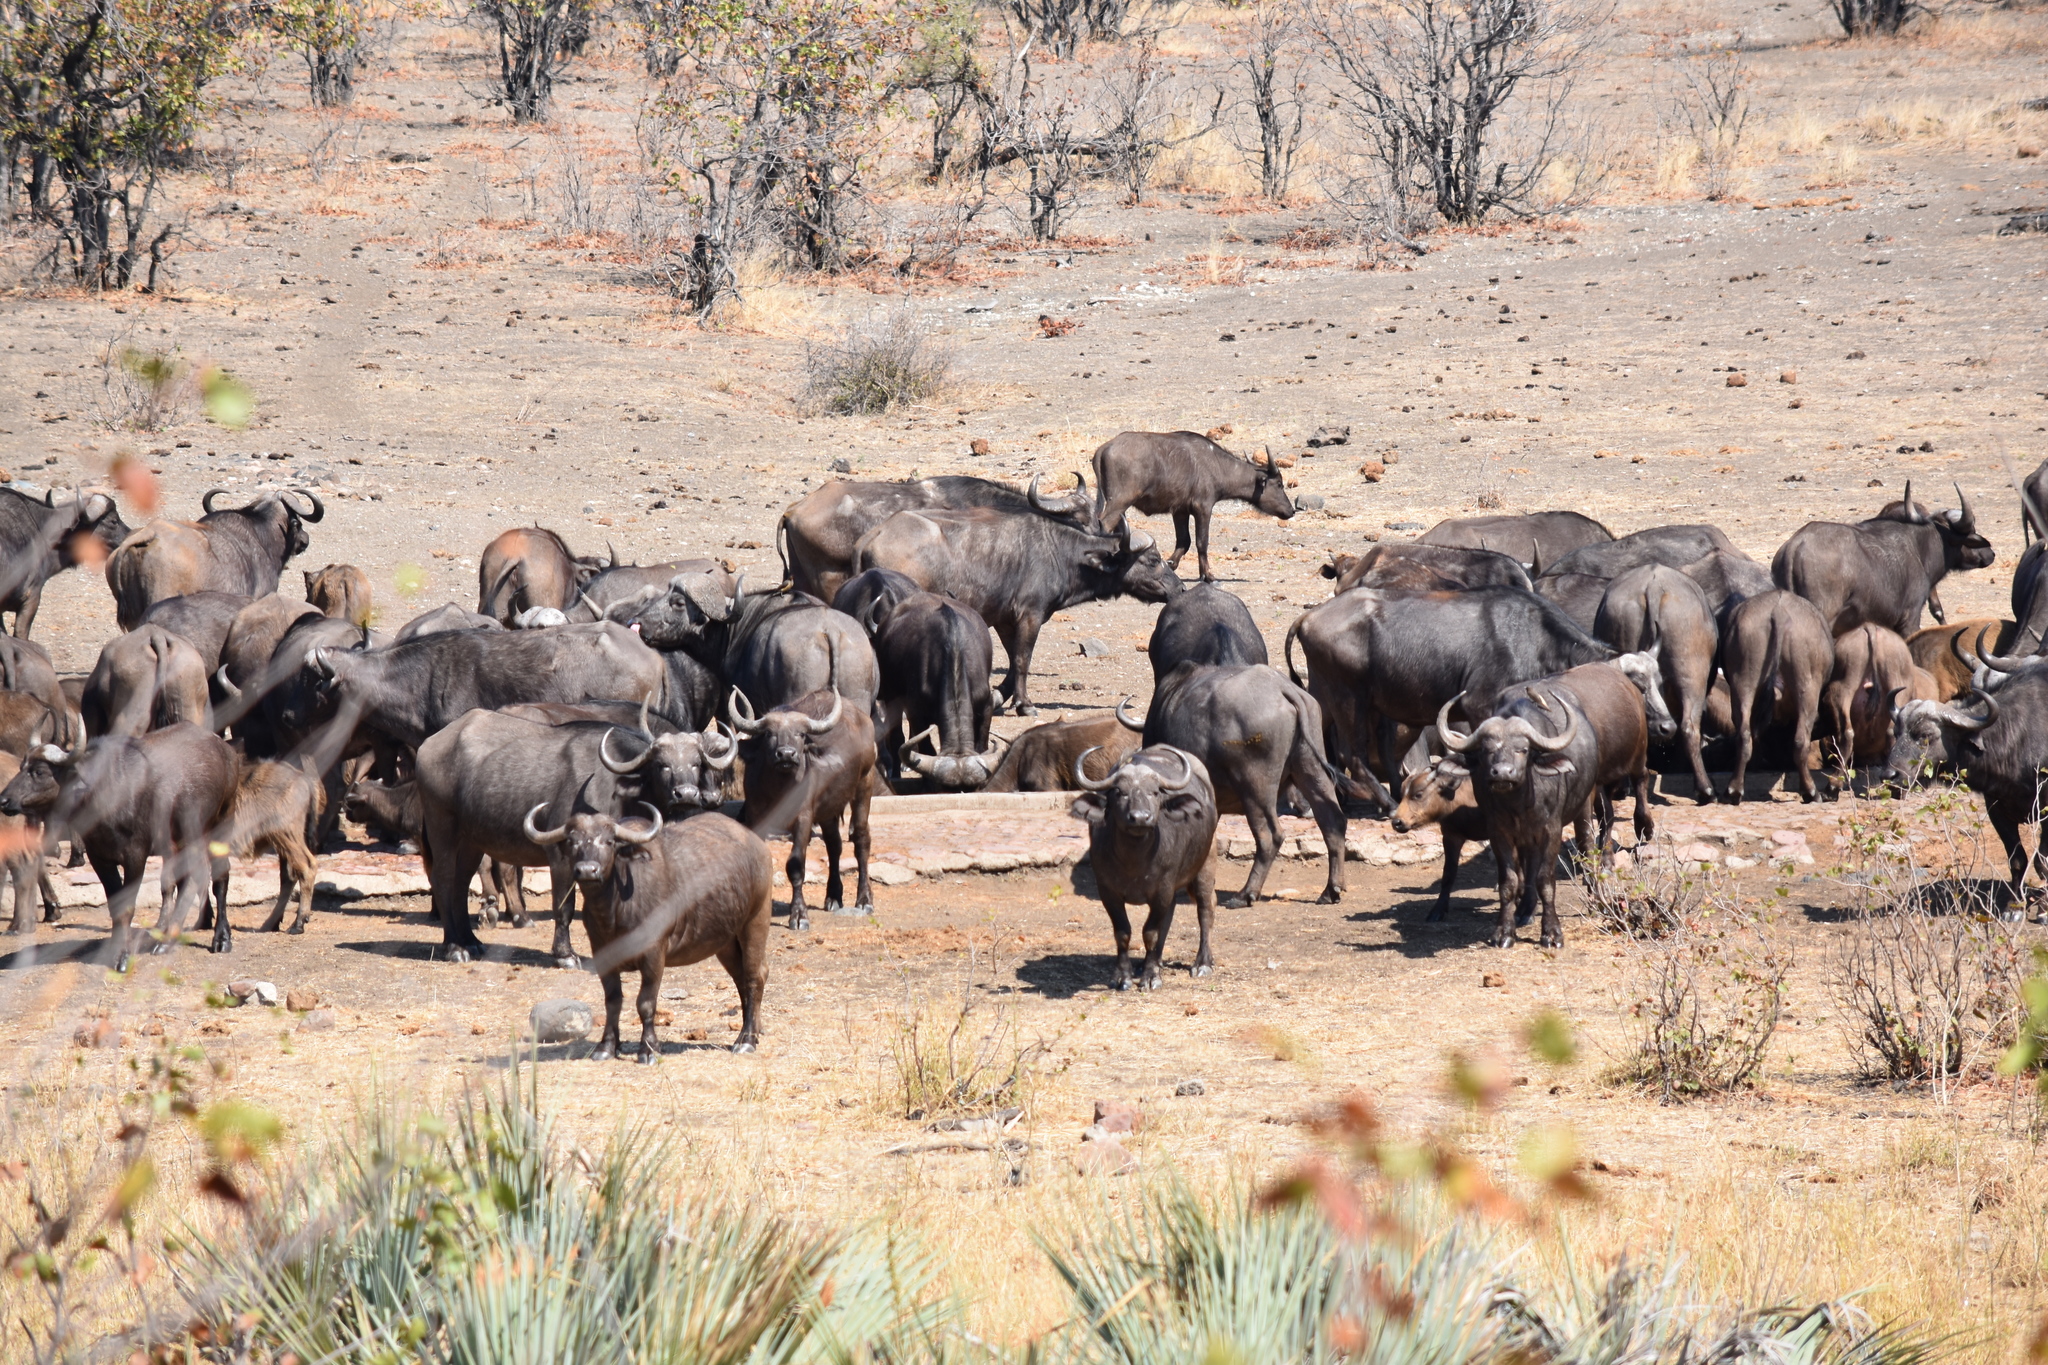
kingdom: Animalia
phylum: Chordata
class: Mammalia
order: Artiodactyla
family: Bovidae
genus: Syncerus
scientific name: Syncerus caffer
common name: African buffalo
